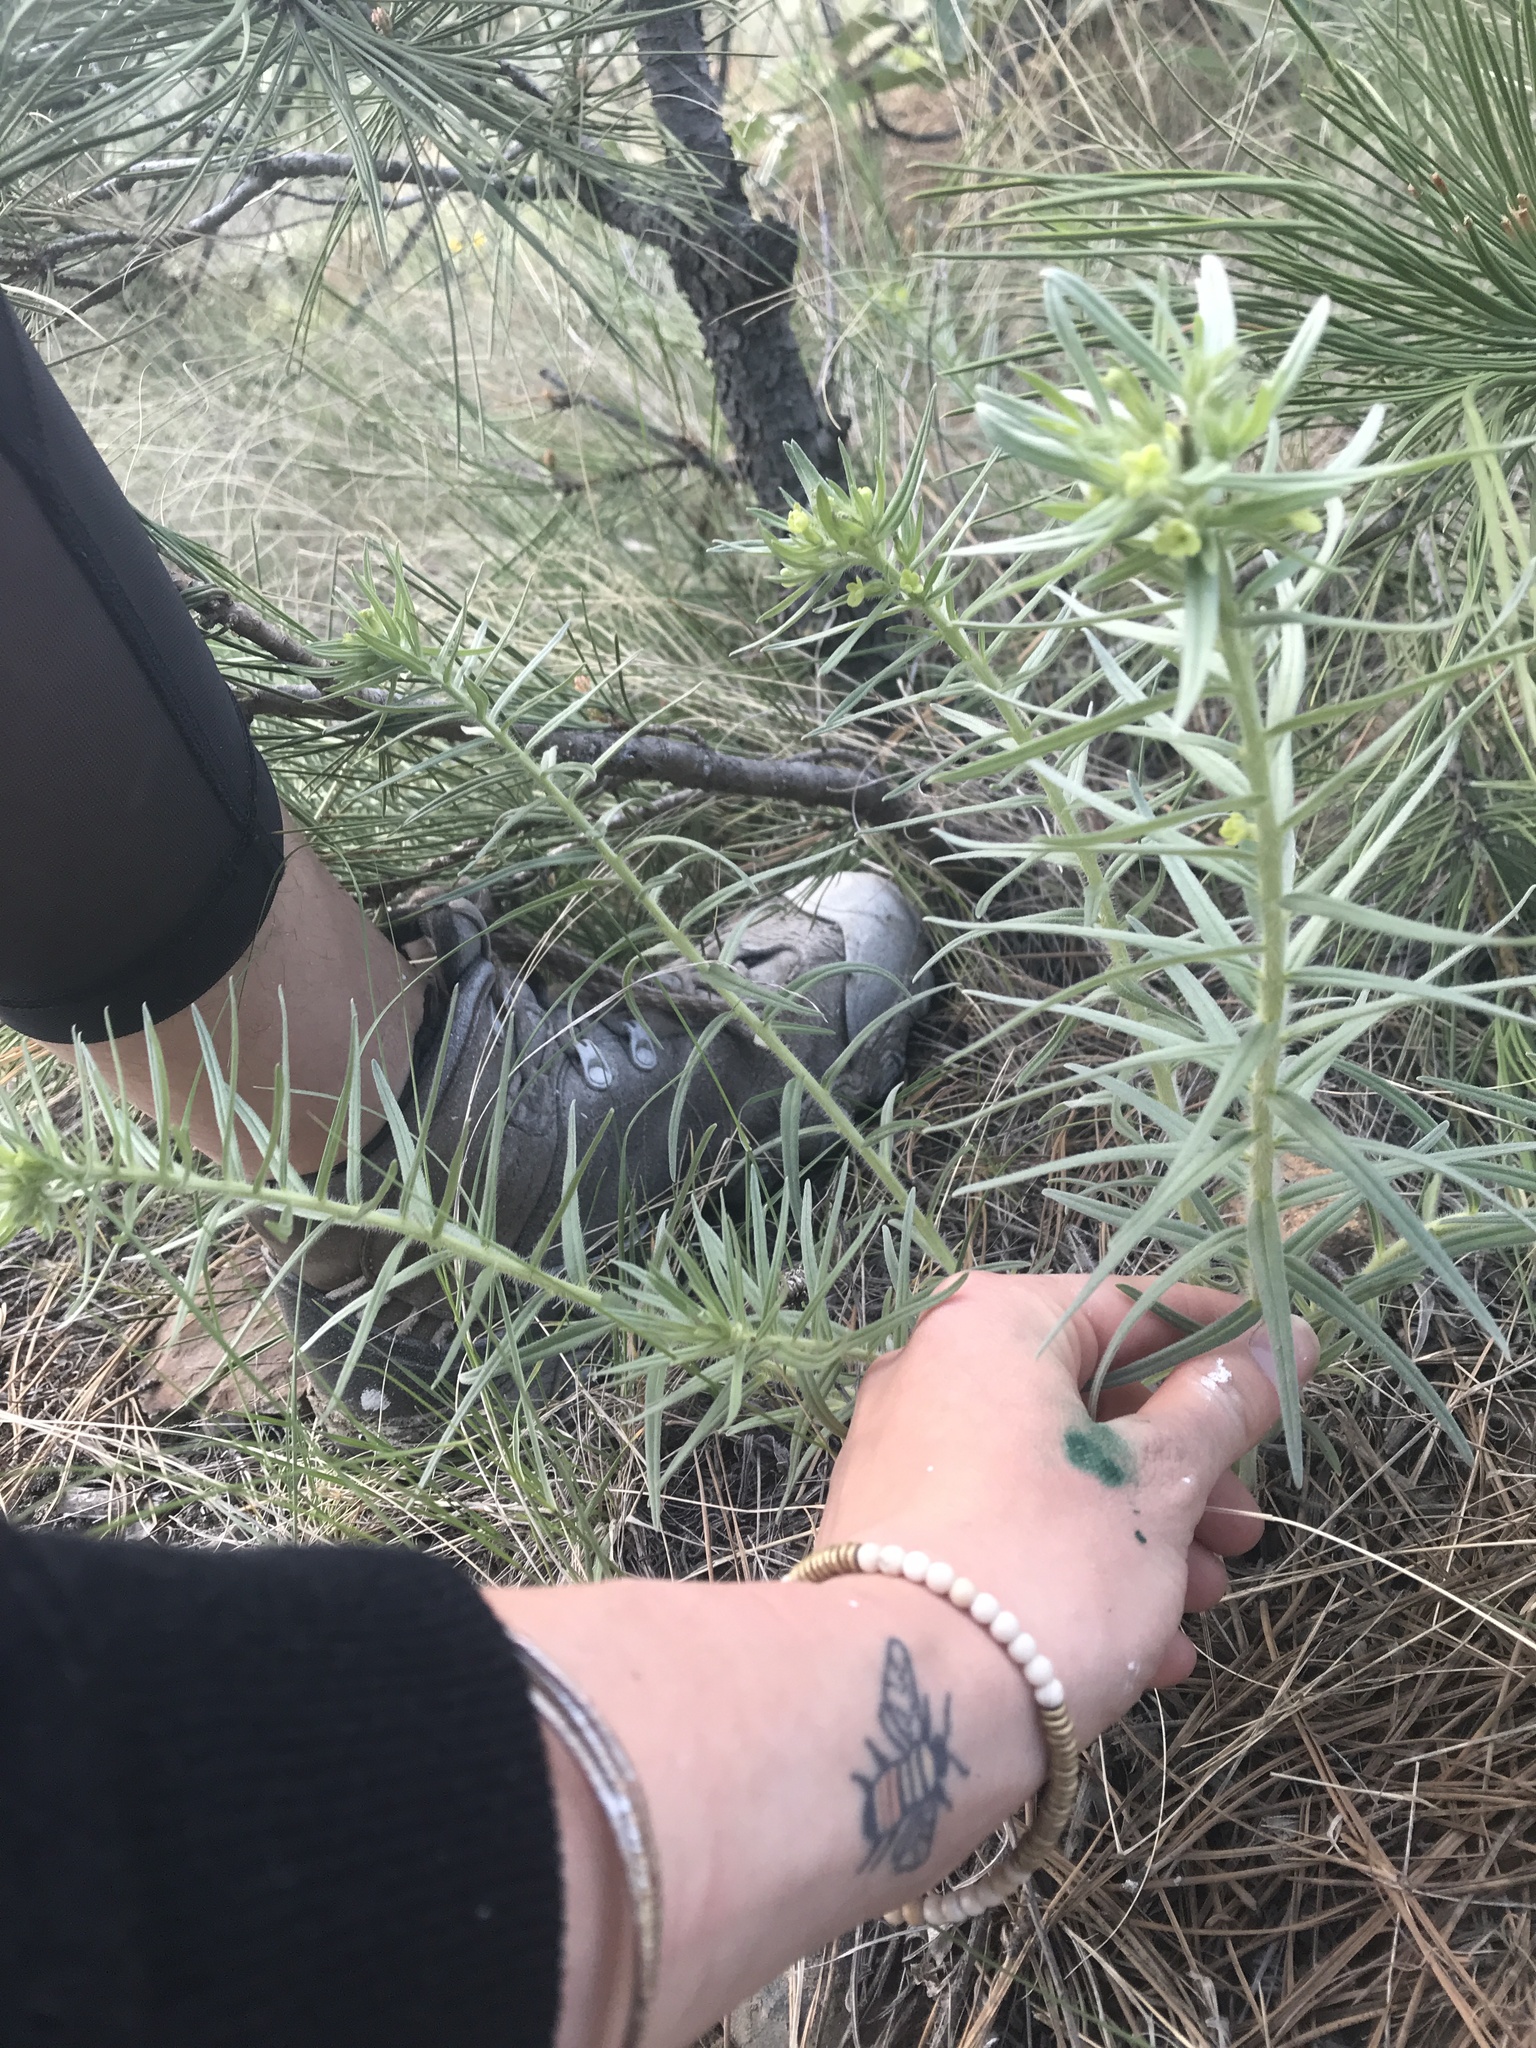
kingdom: Plantae
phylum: Tracheophyta
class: Magnoliopsida
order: Boraginales
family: Boraginaceae
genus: Lithospermum
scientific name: Lithospermum ruderale
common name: Western gromwell
